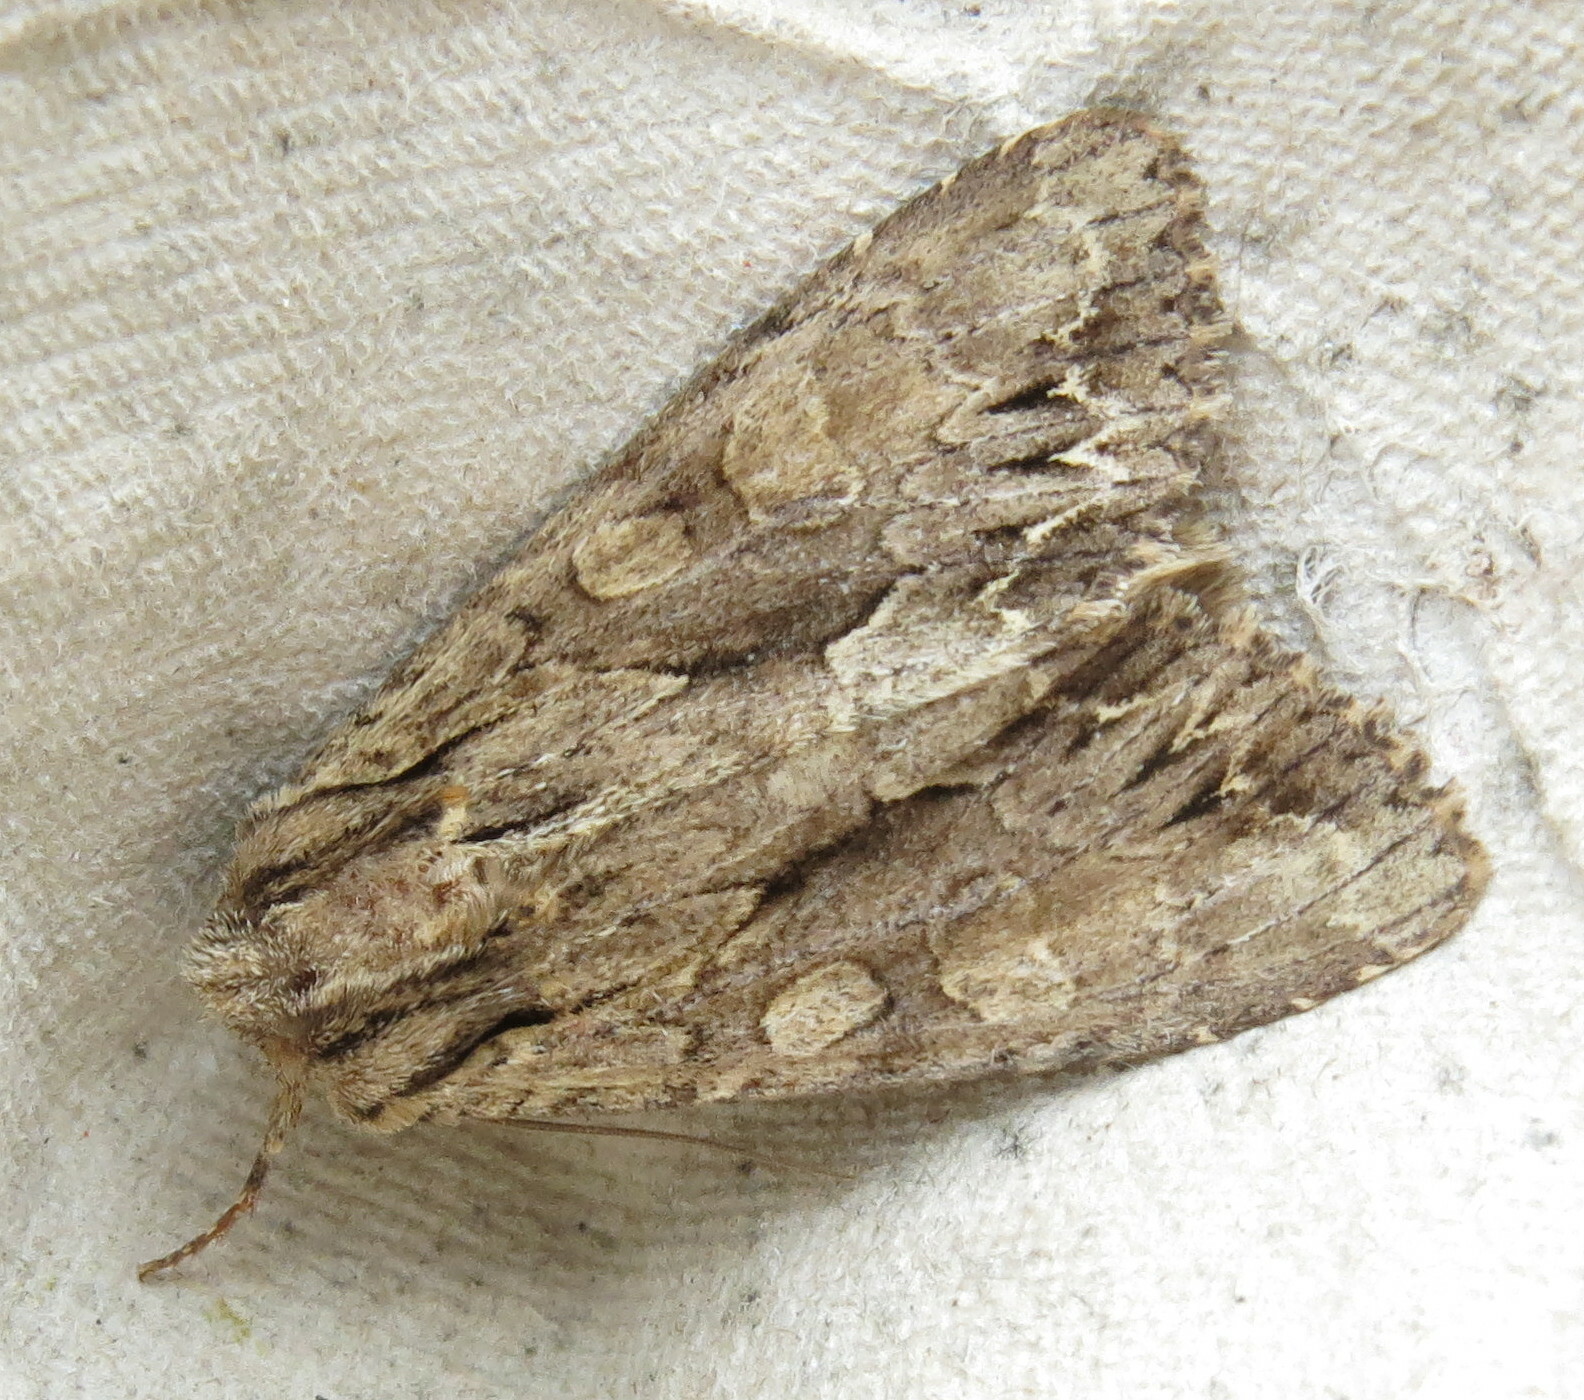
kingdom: Animalia
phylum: Arthropoda
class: Insecta
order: Lepidoptera
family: Noctuidae
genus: Apamea
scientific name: Apamea monoglypha
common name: Dark arches
